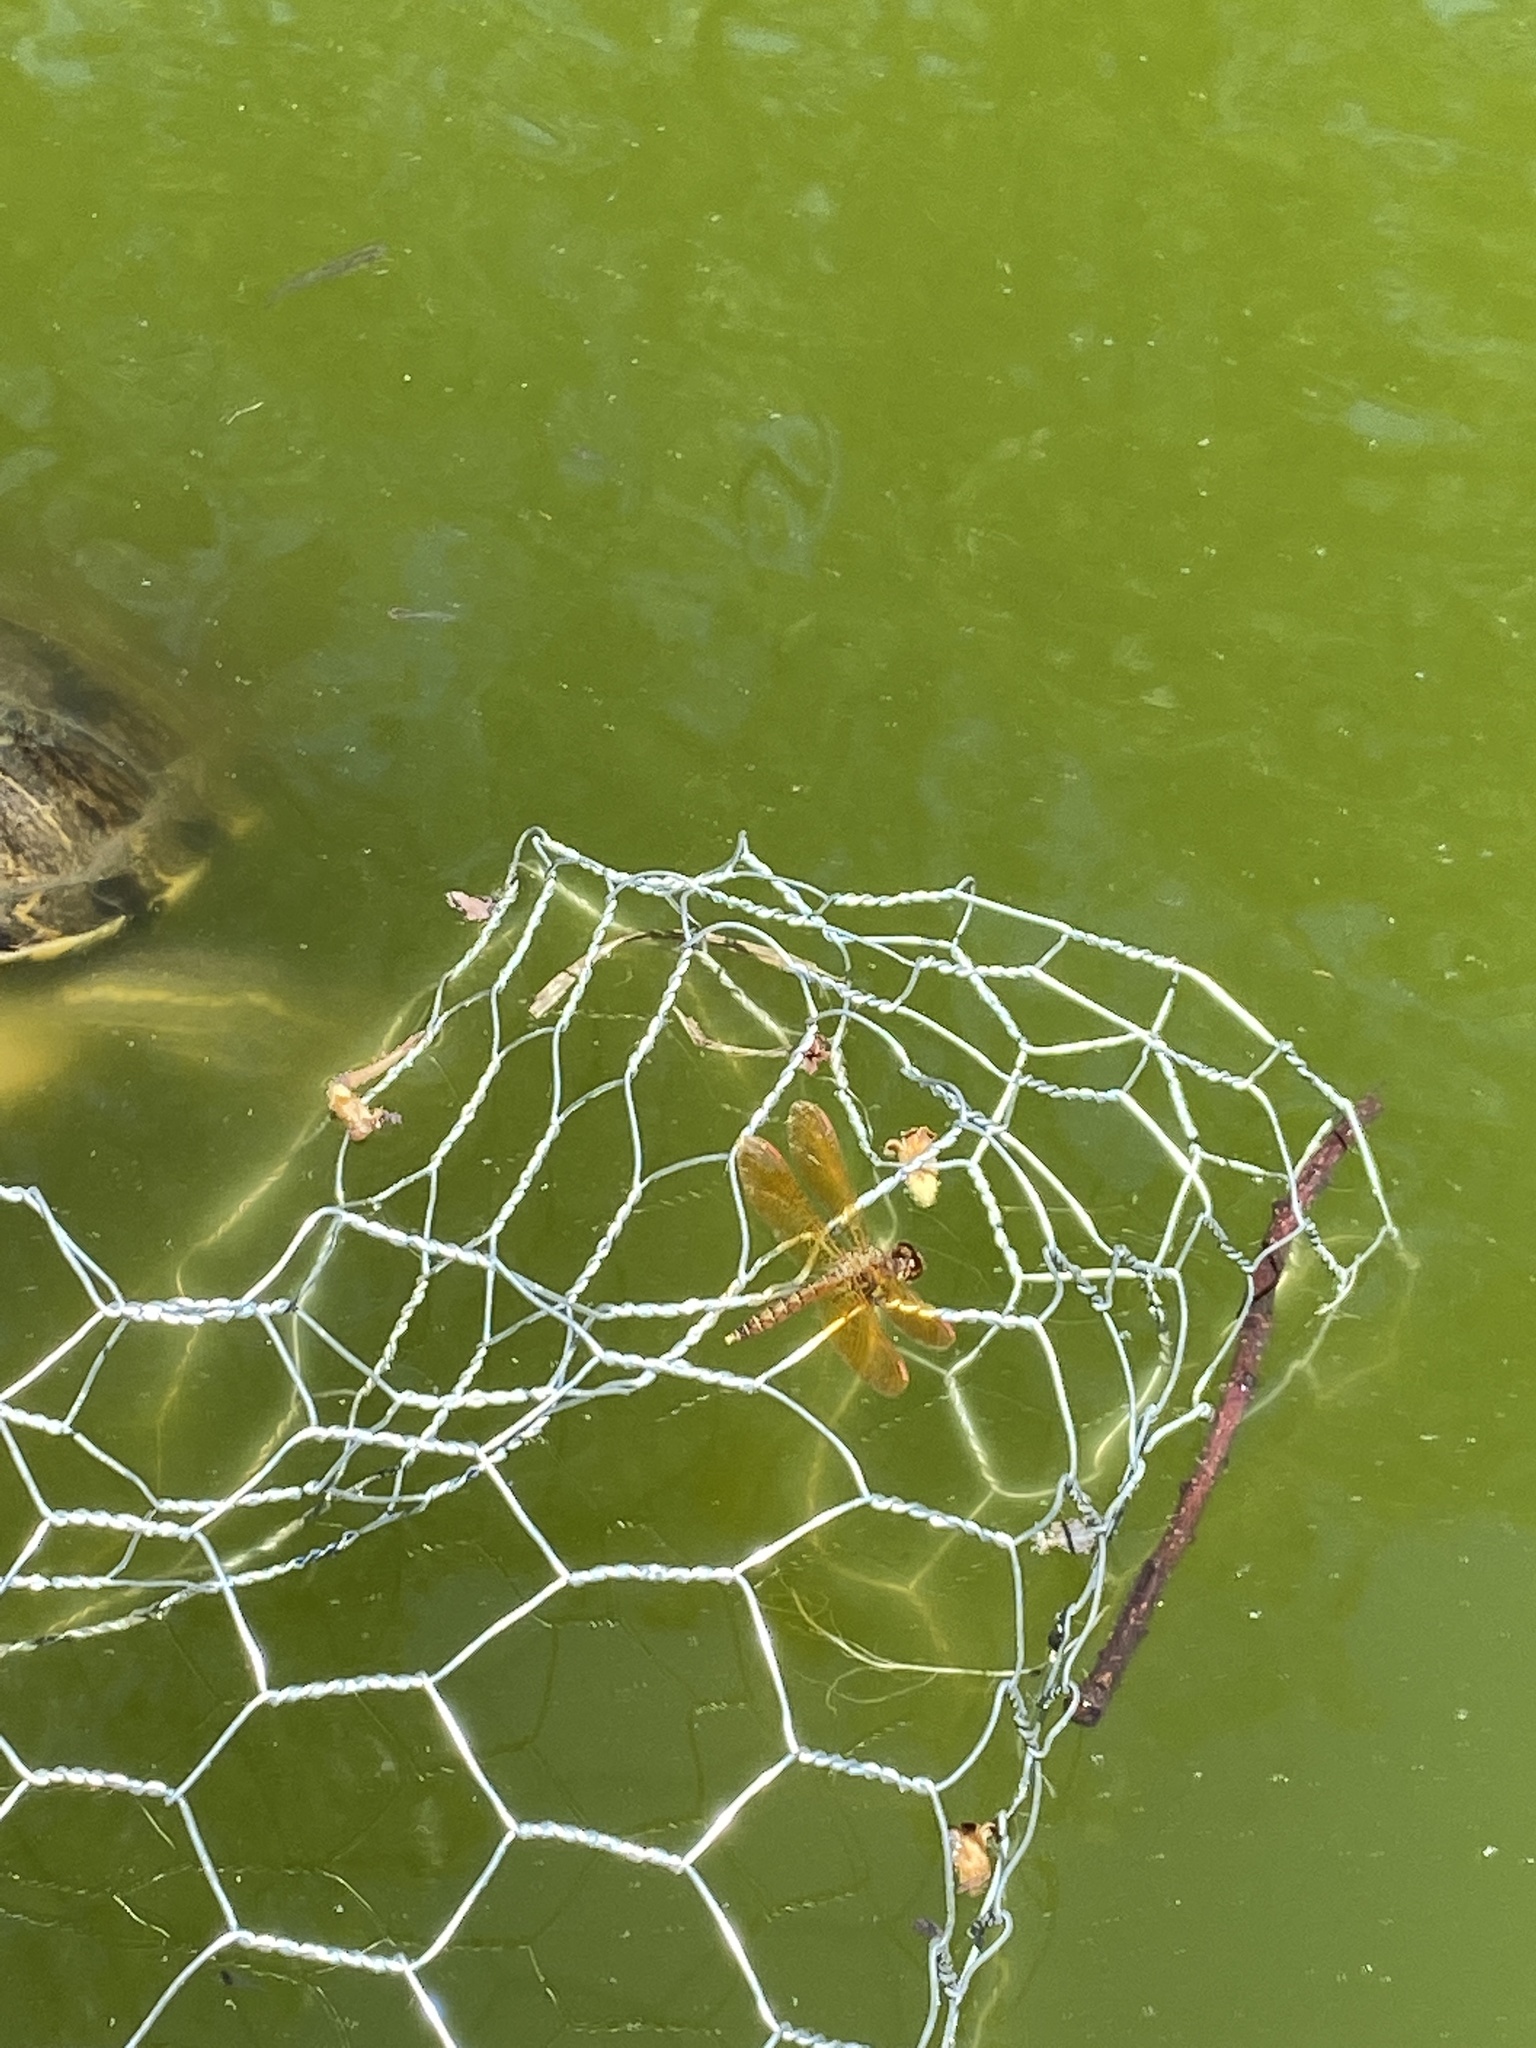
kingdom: Animalia
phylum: Arthropoda
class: Insecta
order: Odonata
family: Libellulidae
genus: Perithemis
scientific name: Perithemis tenera
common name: Eastern amberwing
